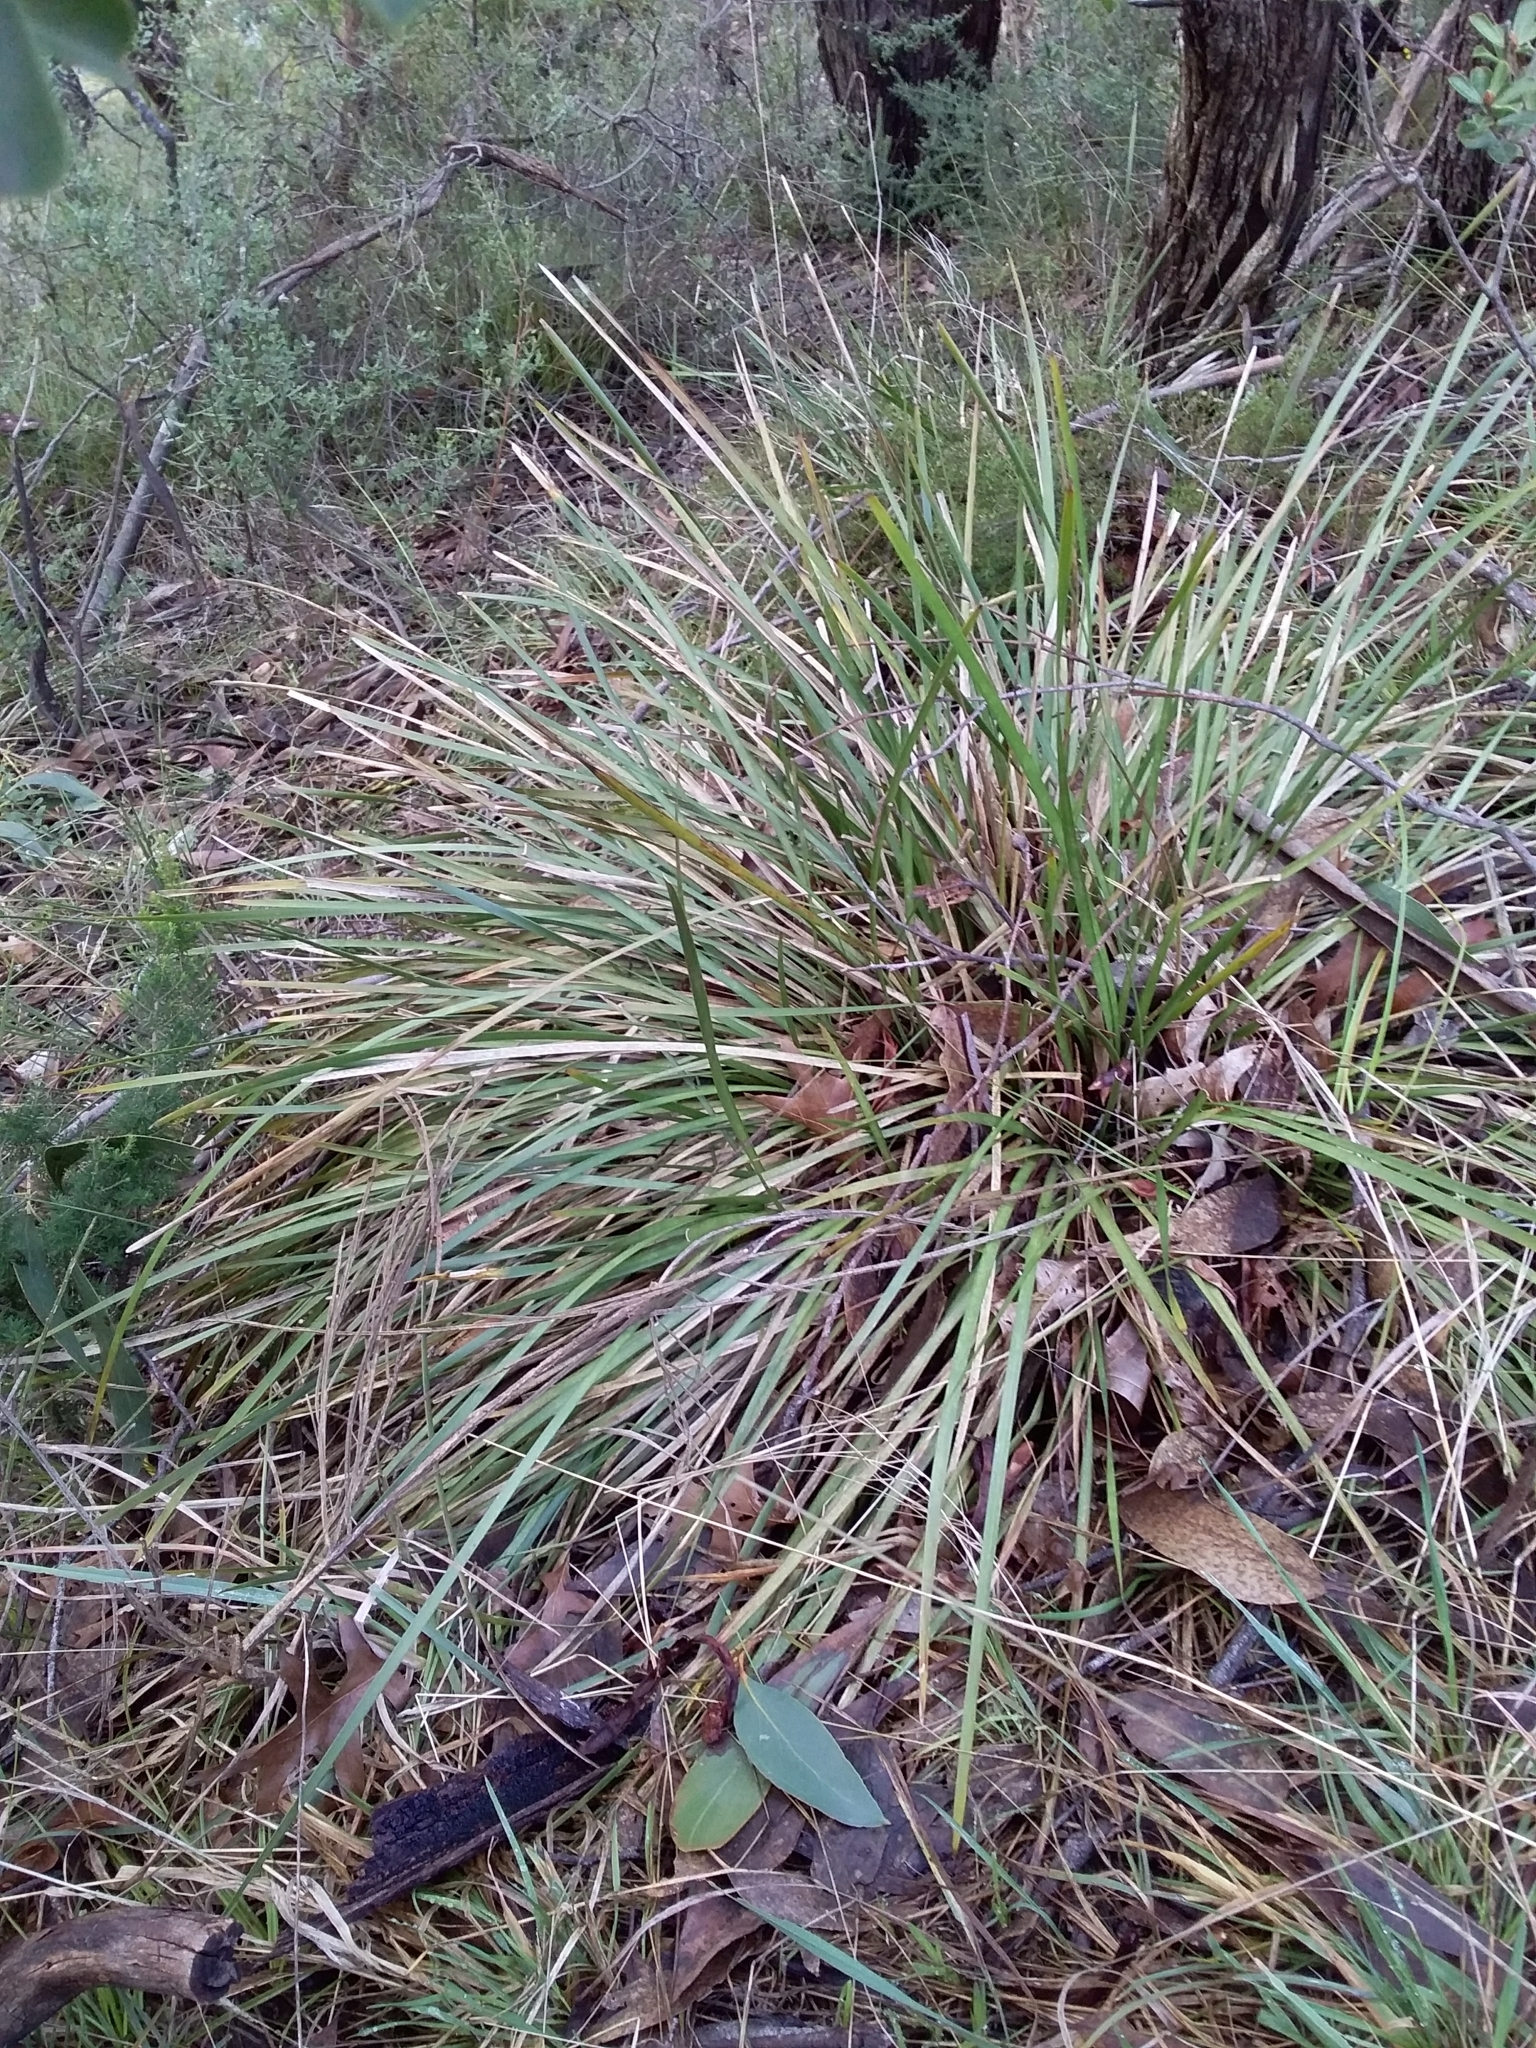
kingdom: Plantae
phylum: Tracheophyta
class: Liliopsida
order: Asparagales
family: Asparagaceae
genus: Lomandra
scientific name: Lomandra densiflora
